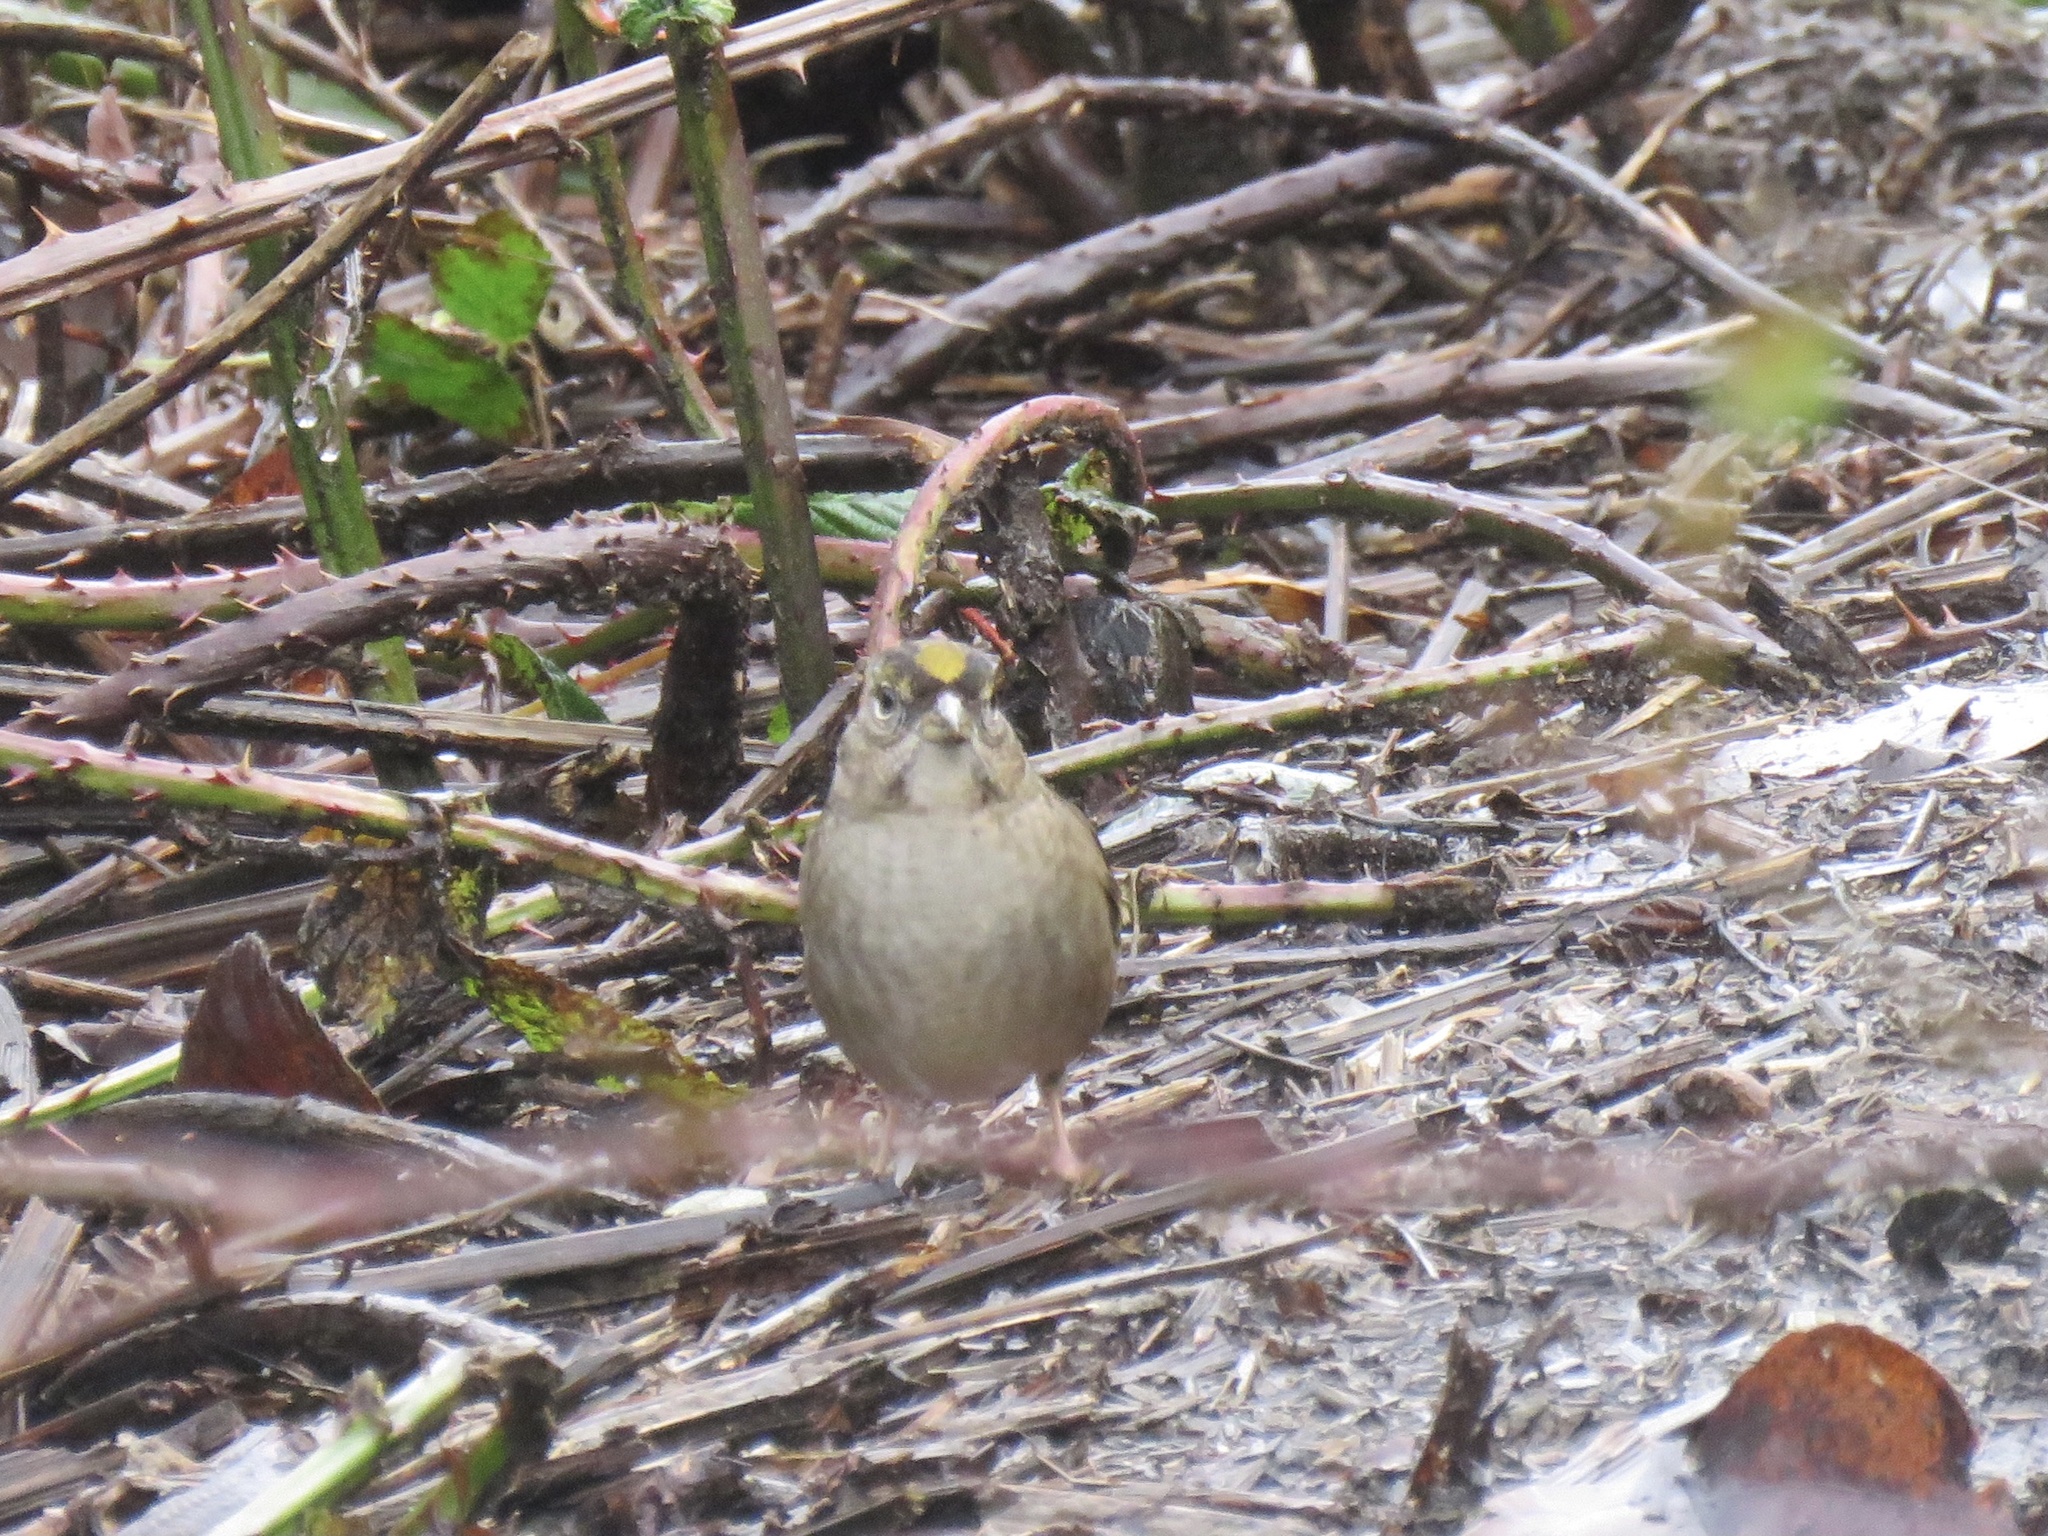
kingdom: Animalia
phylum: Chordata
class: Aves
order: Passeriformes
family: Passerellidae
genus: Zonotrichia
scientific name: Zonotrichia atricapilla
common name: Golden-crowned sparrow
